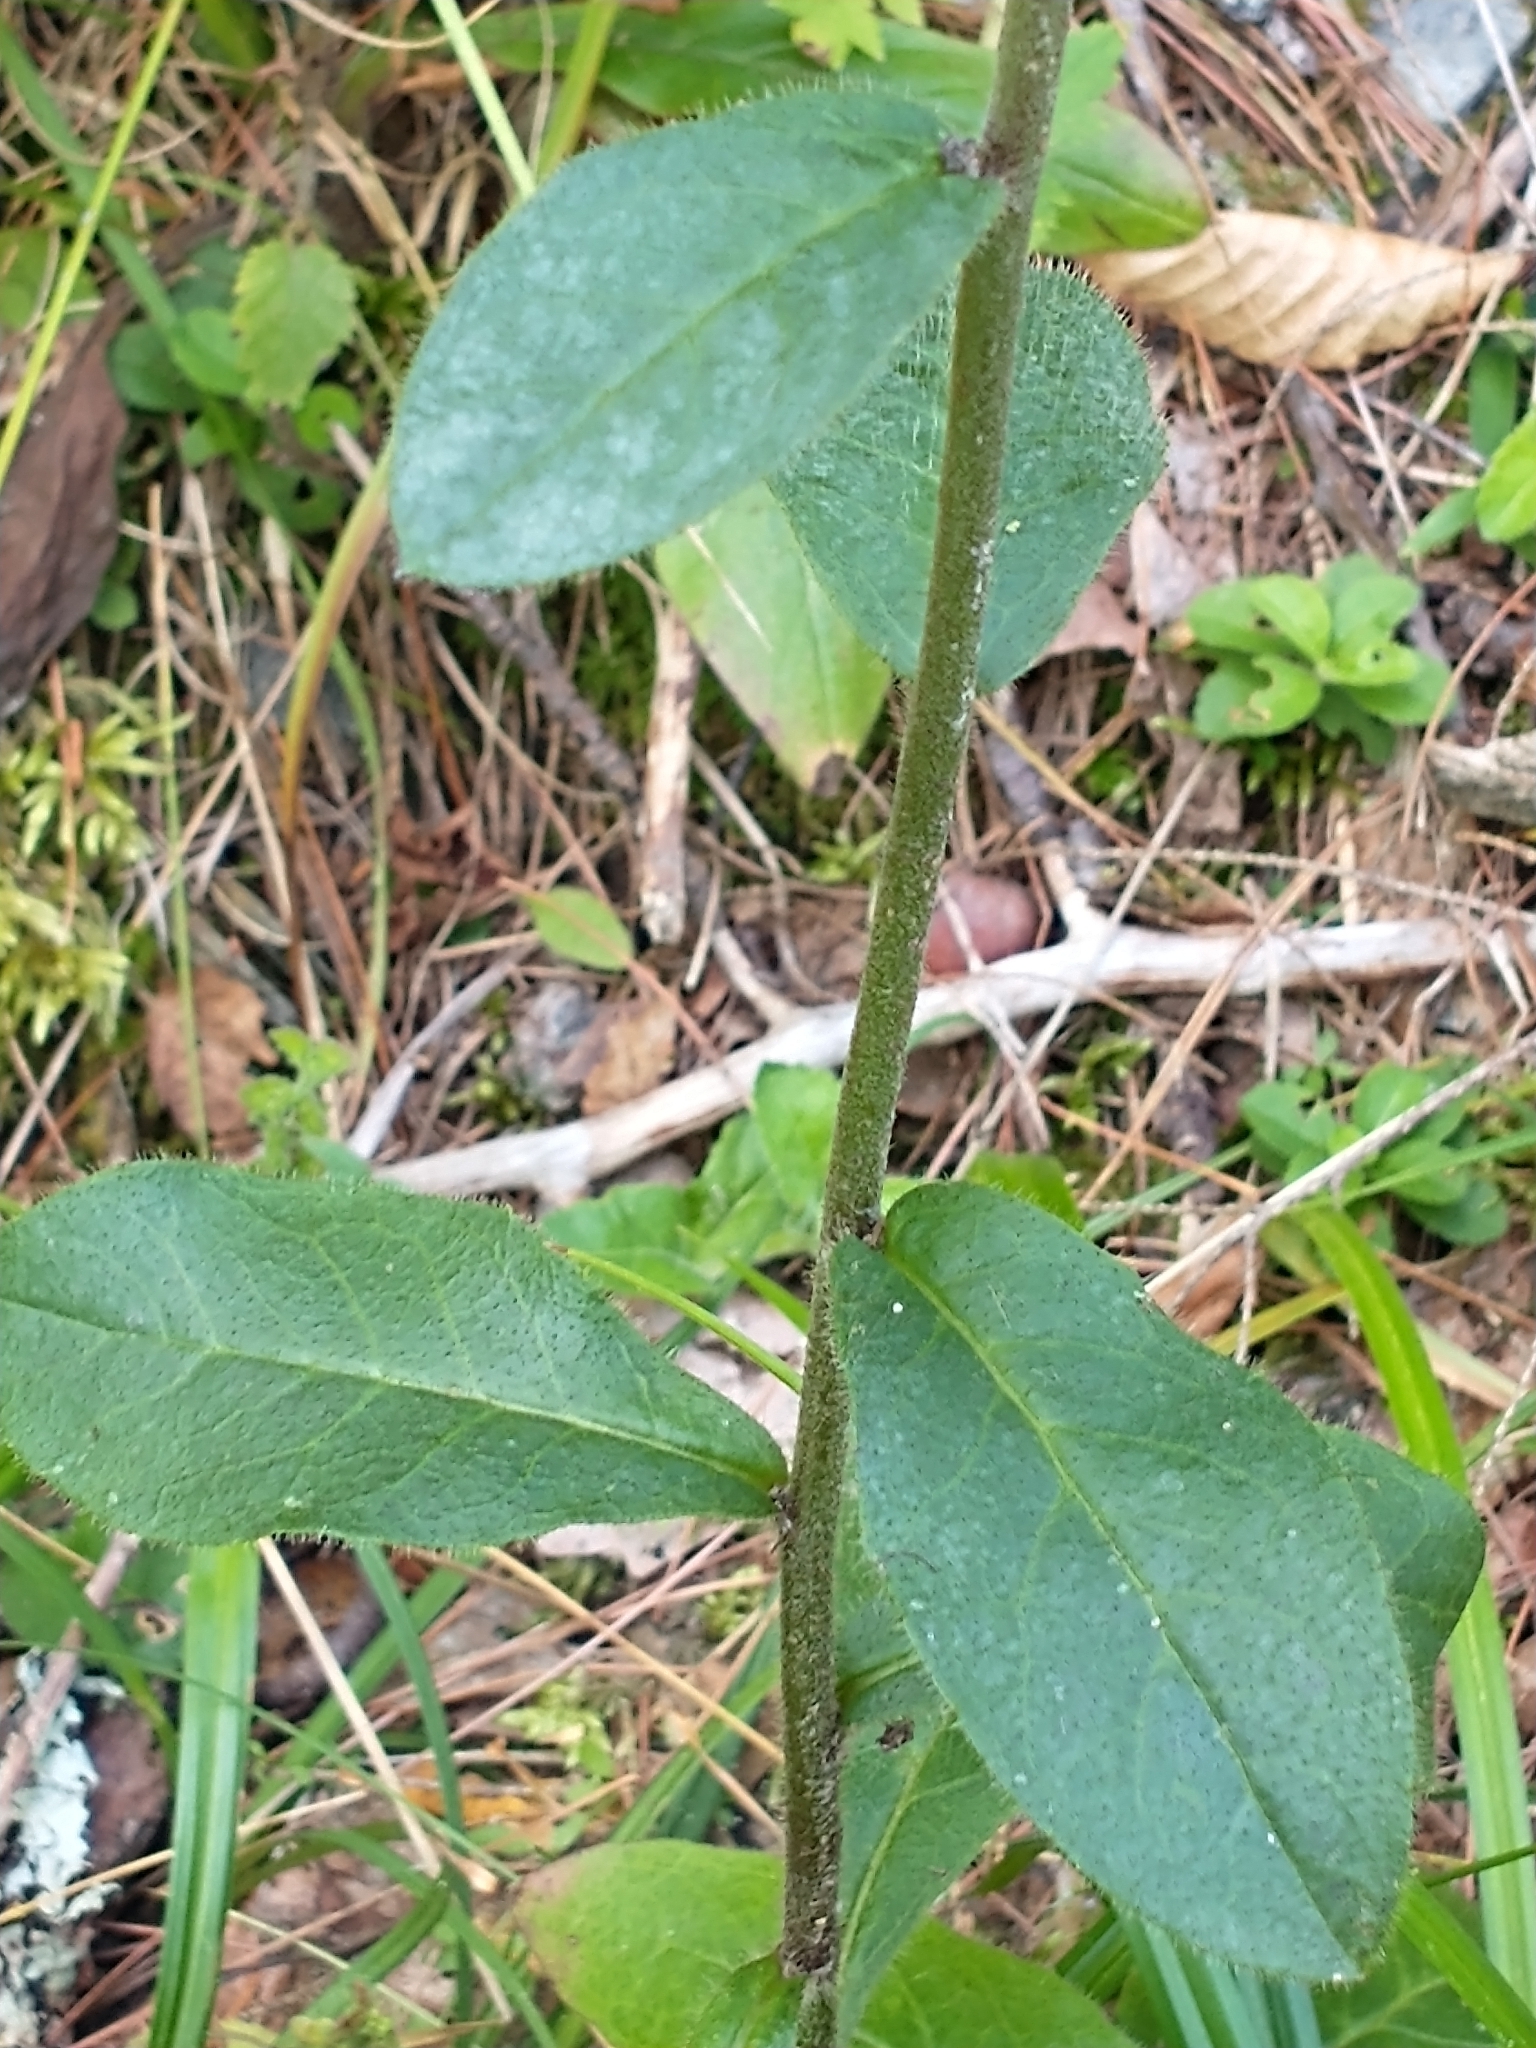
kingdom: Plantae
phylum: Tracheophyta
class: Magnoliopsida
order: Asterales
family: Asteraceae
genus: Hieracium
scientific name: Hieracium scabrum
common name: Rough hawkweed
